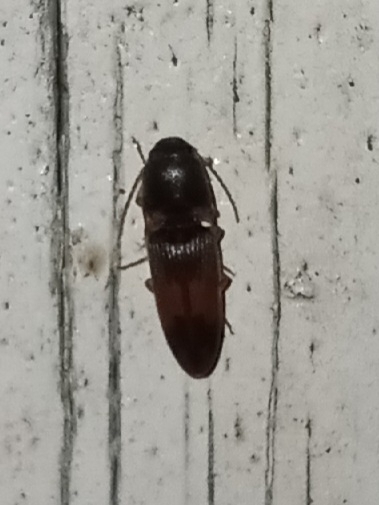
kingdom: Animalia
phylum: Arthropoda
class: Insecta
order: Coleoptera
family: Elateridae
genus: Monocrepidius
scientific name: Monocrepidius
